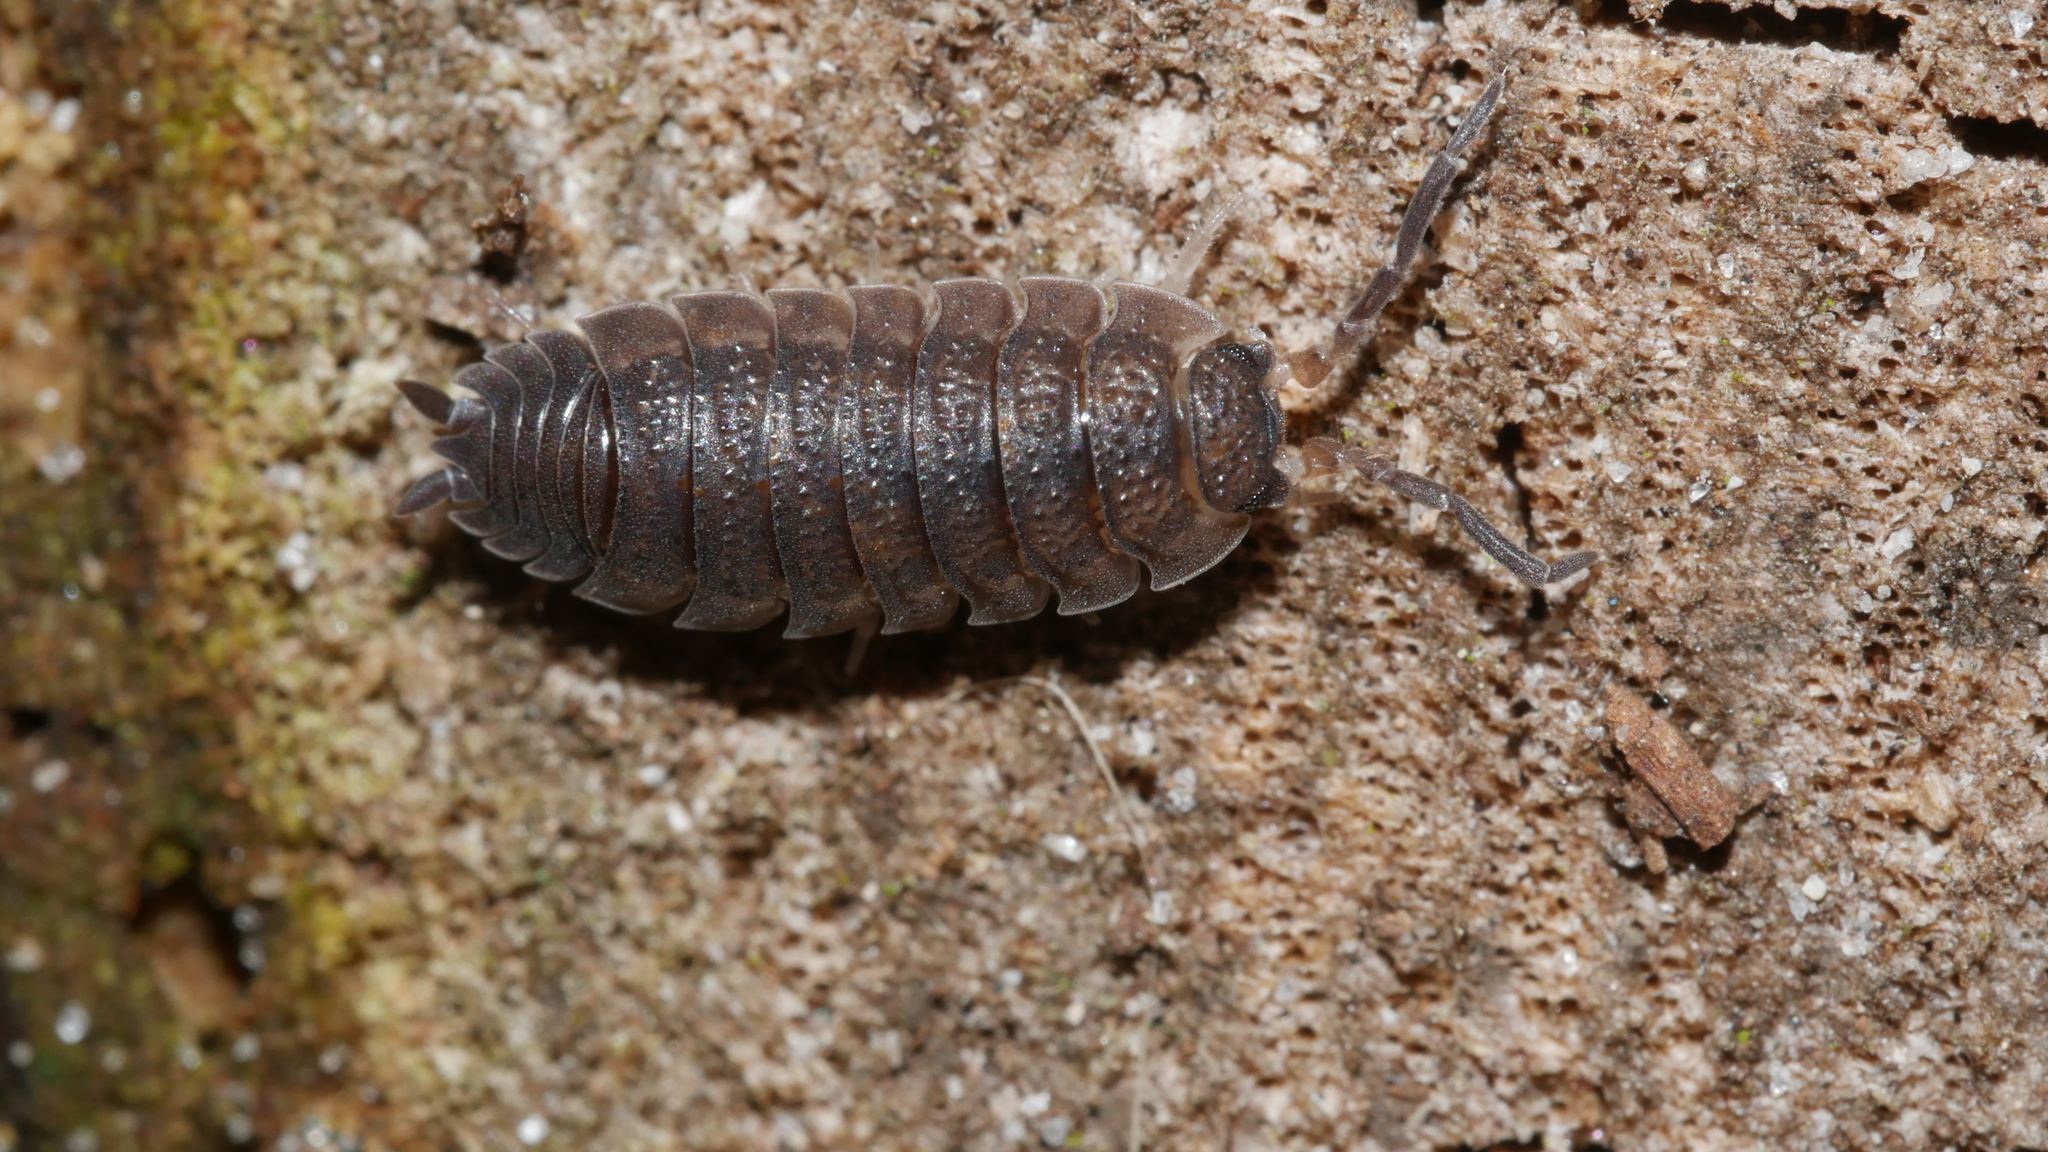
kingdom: Animalia
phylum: Arthropoda
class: Malacostraca
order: Isopoda
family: Porcellionidae
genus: Porcellio
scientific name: Porcellio scaber
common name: Common rough woodlouse
